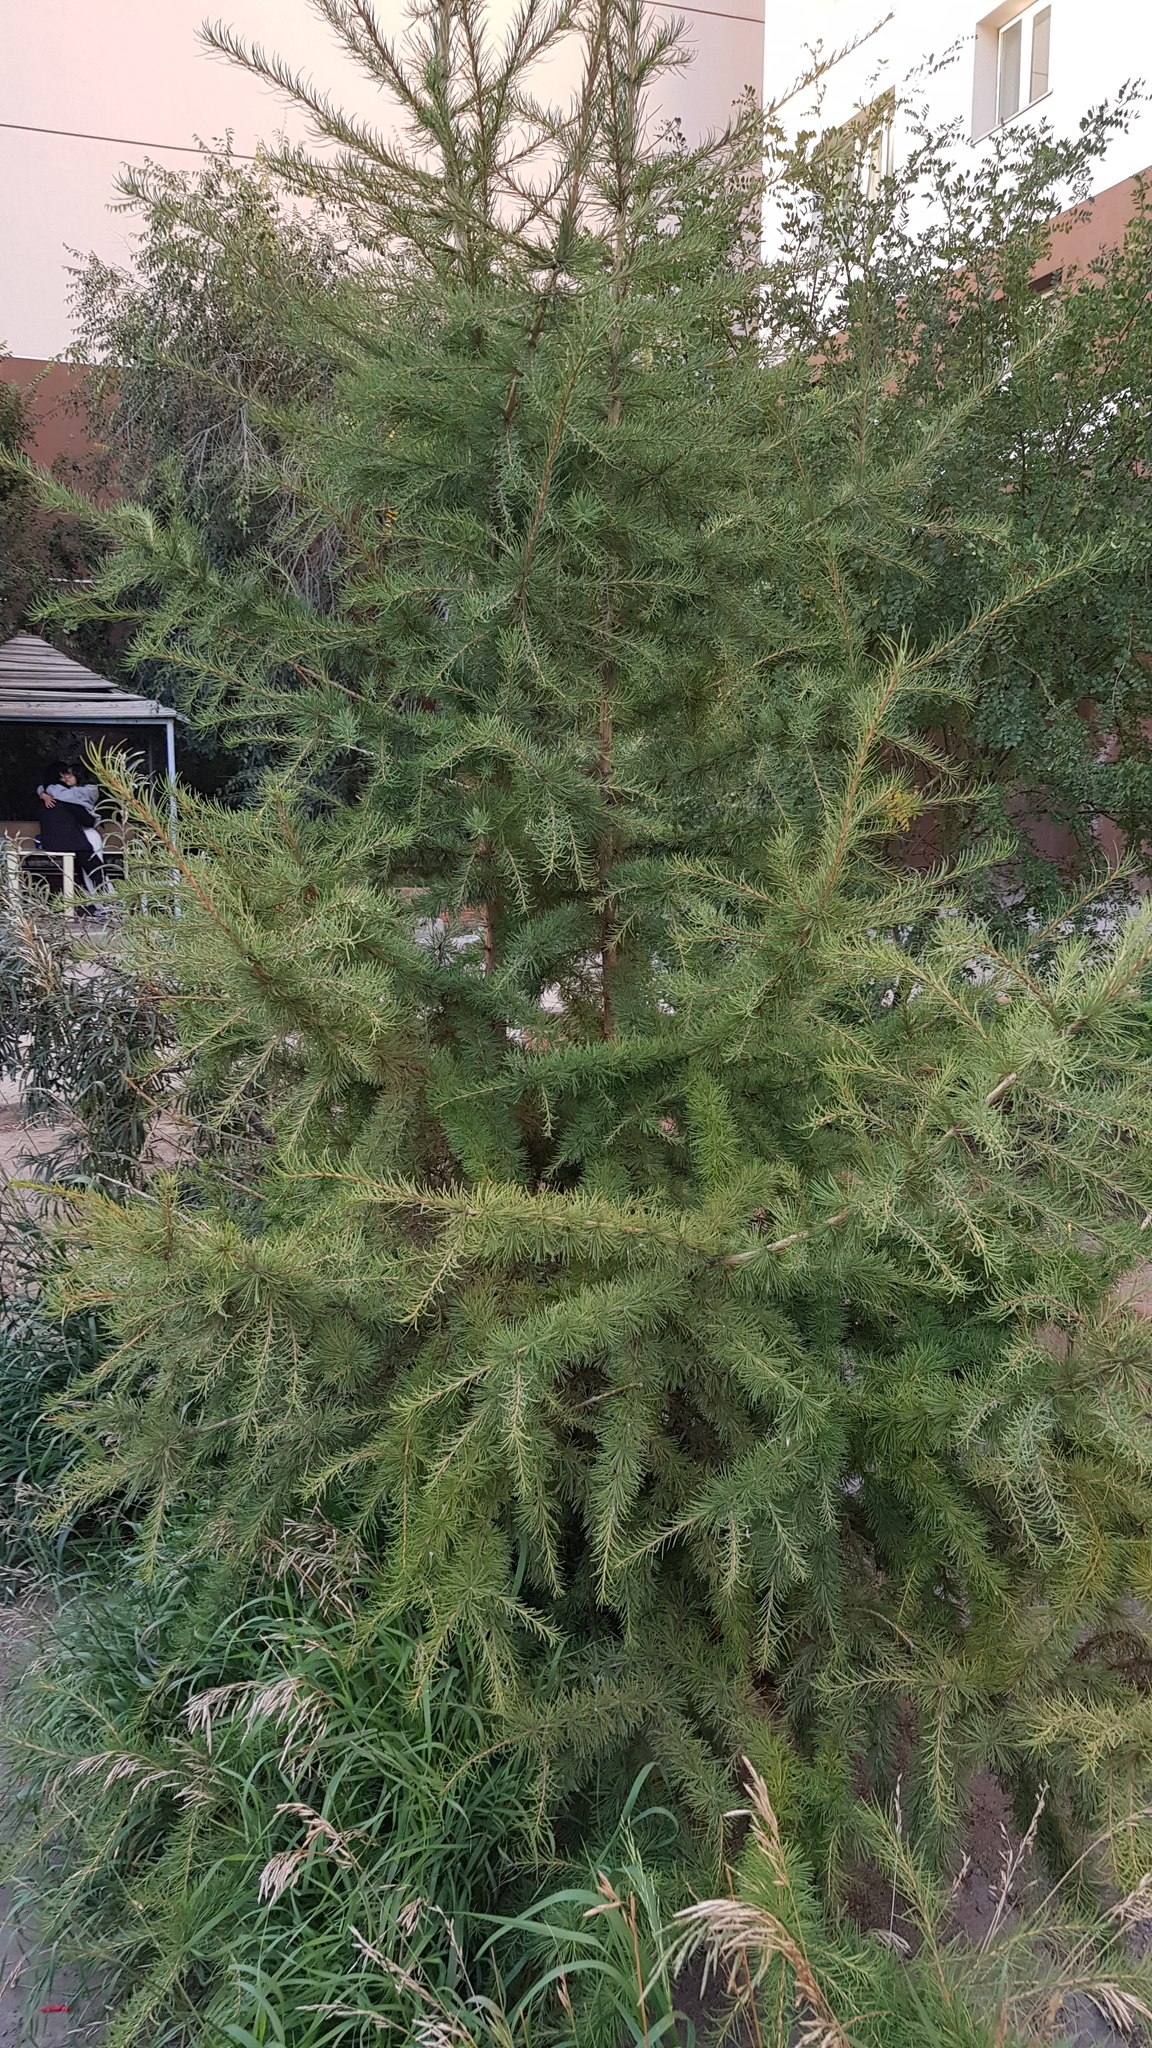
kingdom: Plantae
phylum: Tracheophyta
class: Pinopsida
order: Pinales
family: Pinaceae
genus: Larix
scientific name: Larix sibirica
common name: Siberian larch
